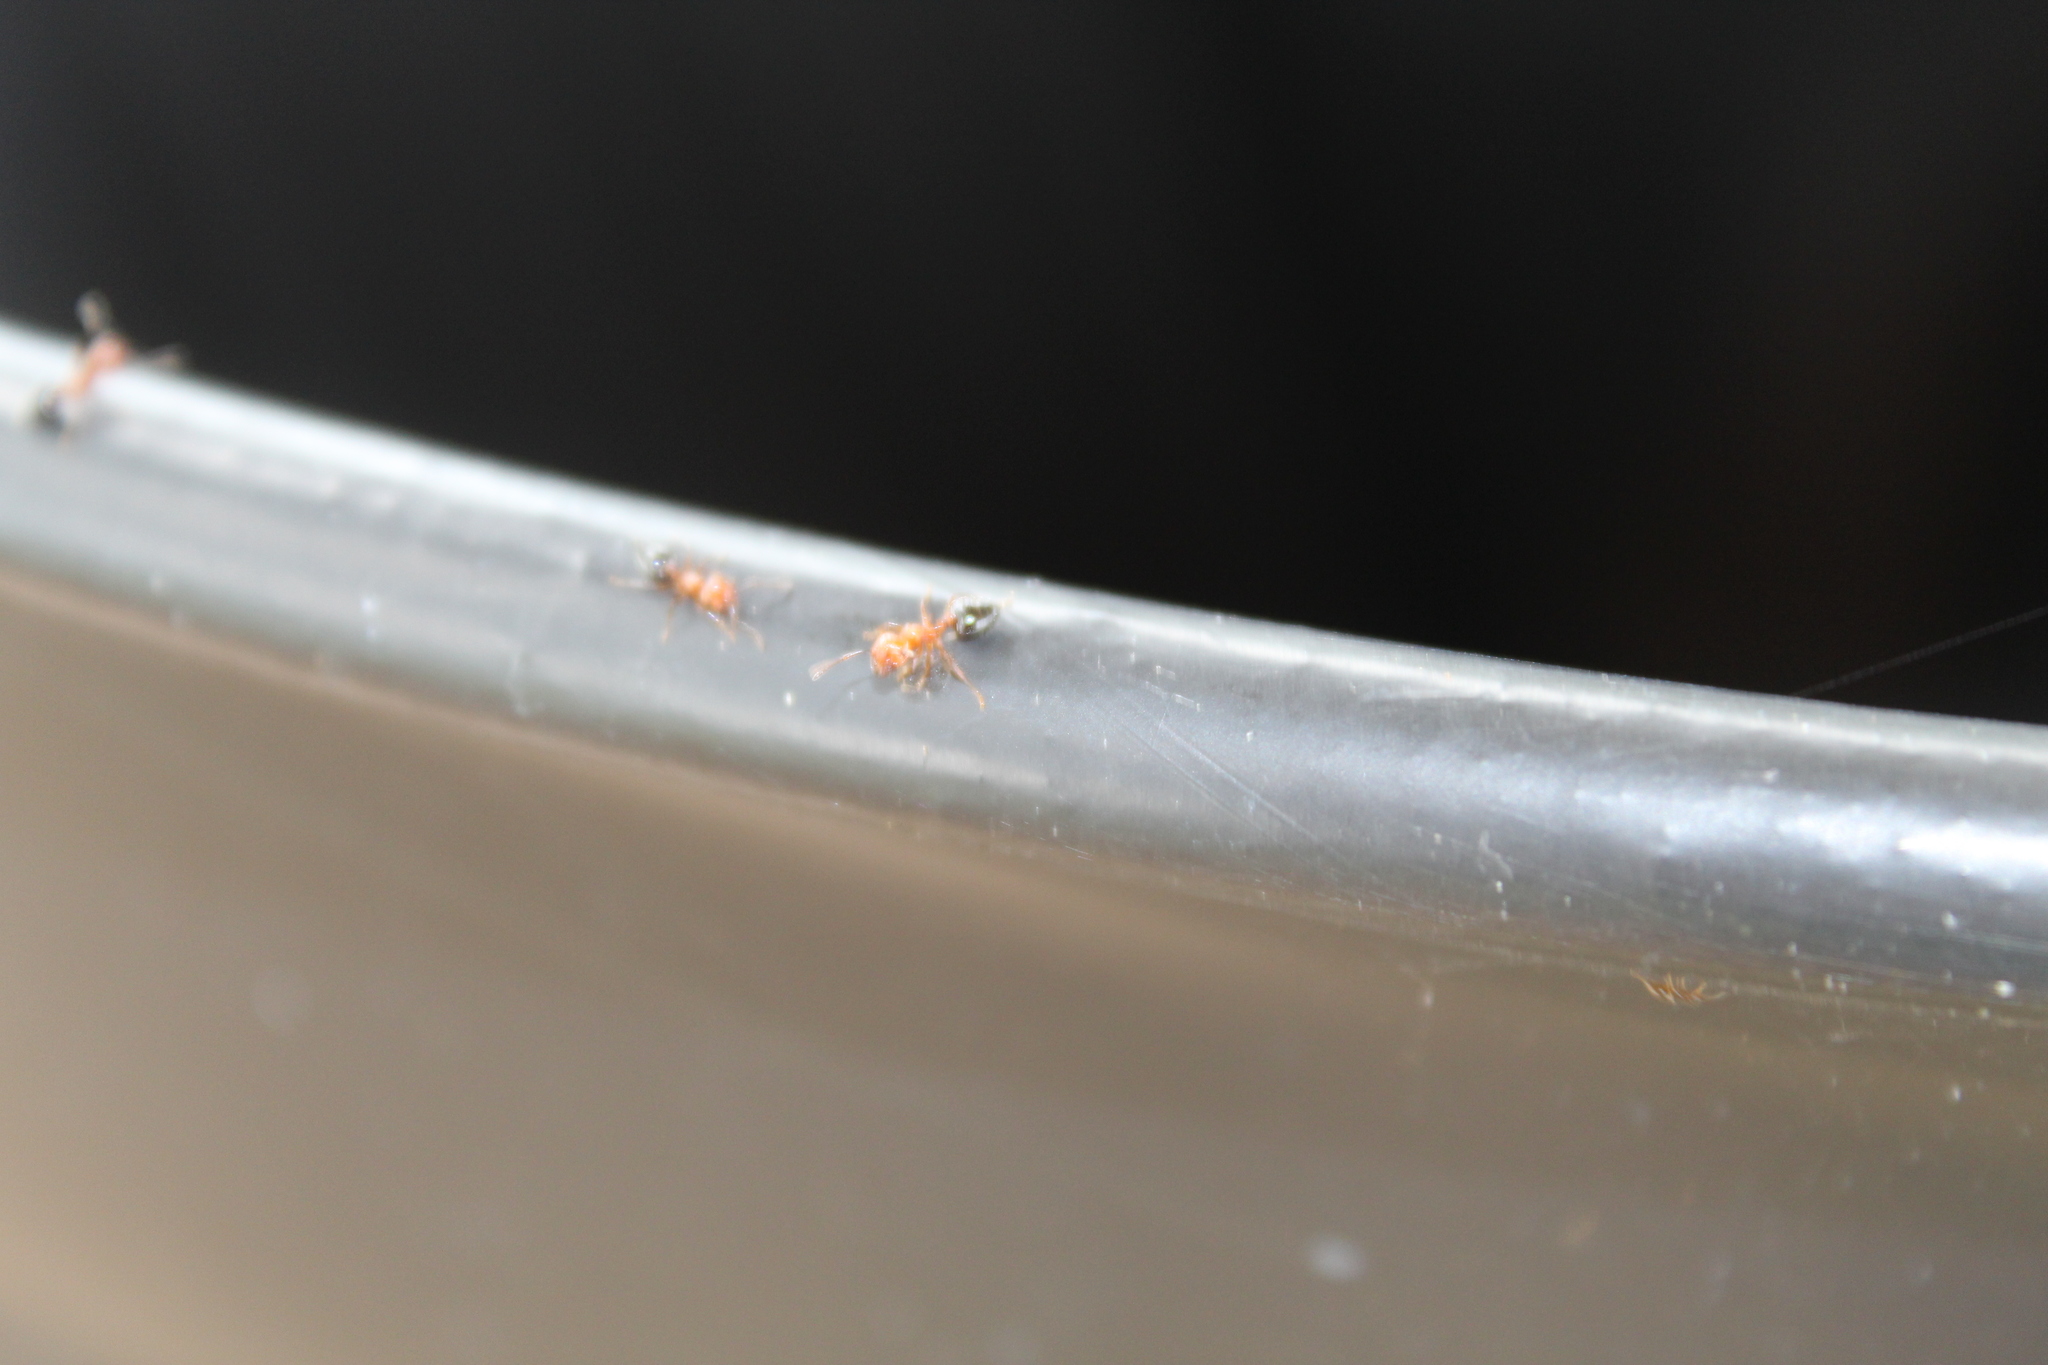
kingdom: Animalia
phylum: Arthropoda
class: Insecta
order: Hymenoptera
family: Formicidae
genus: Crematogaster
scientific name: Crematogaster laeviuscula
